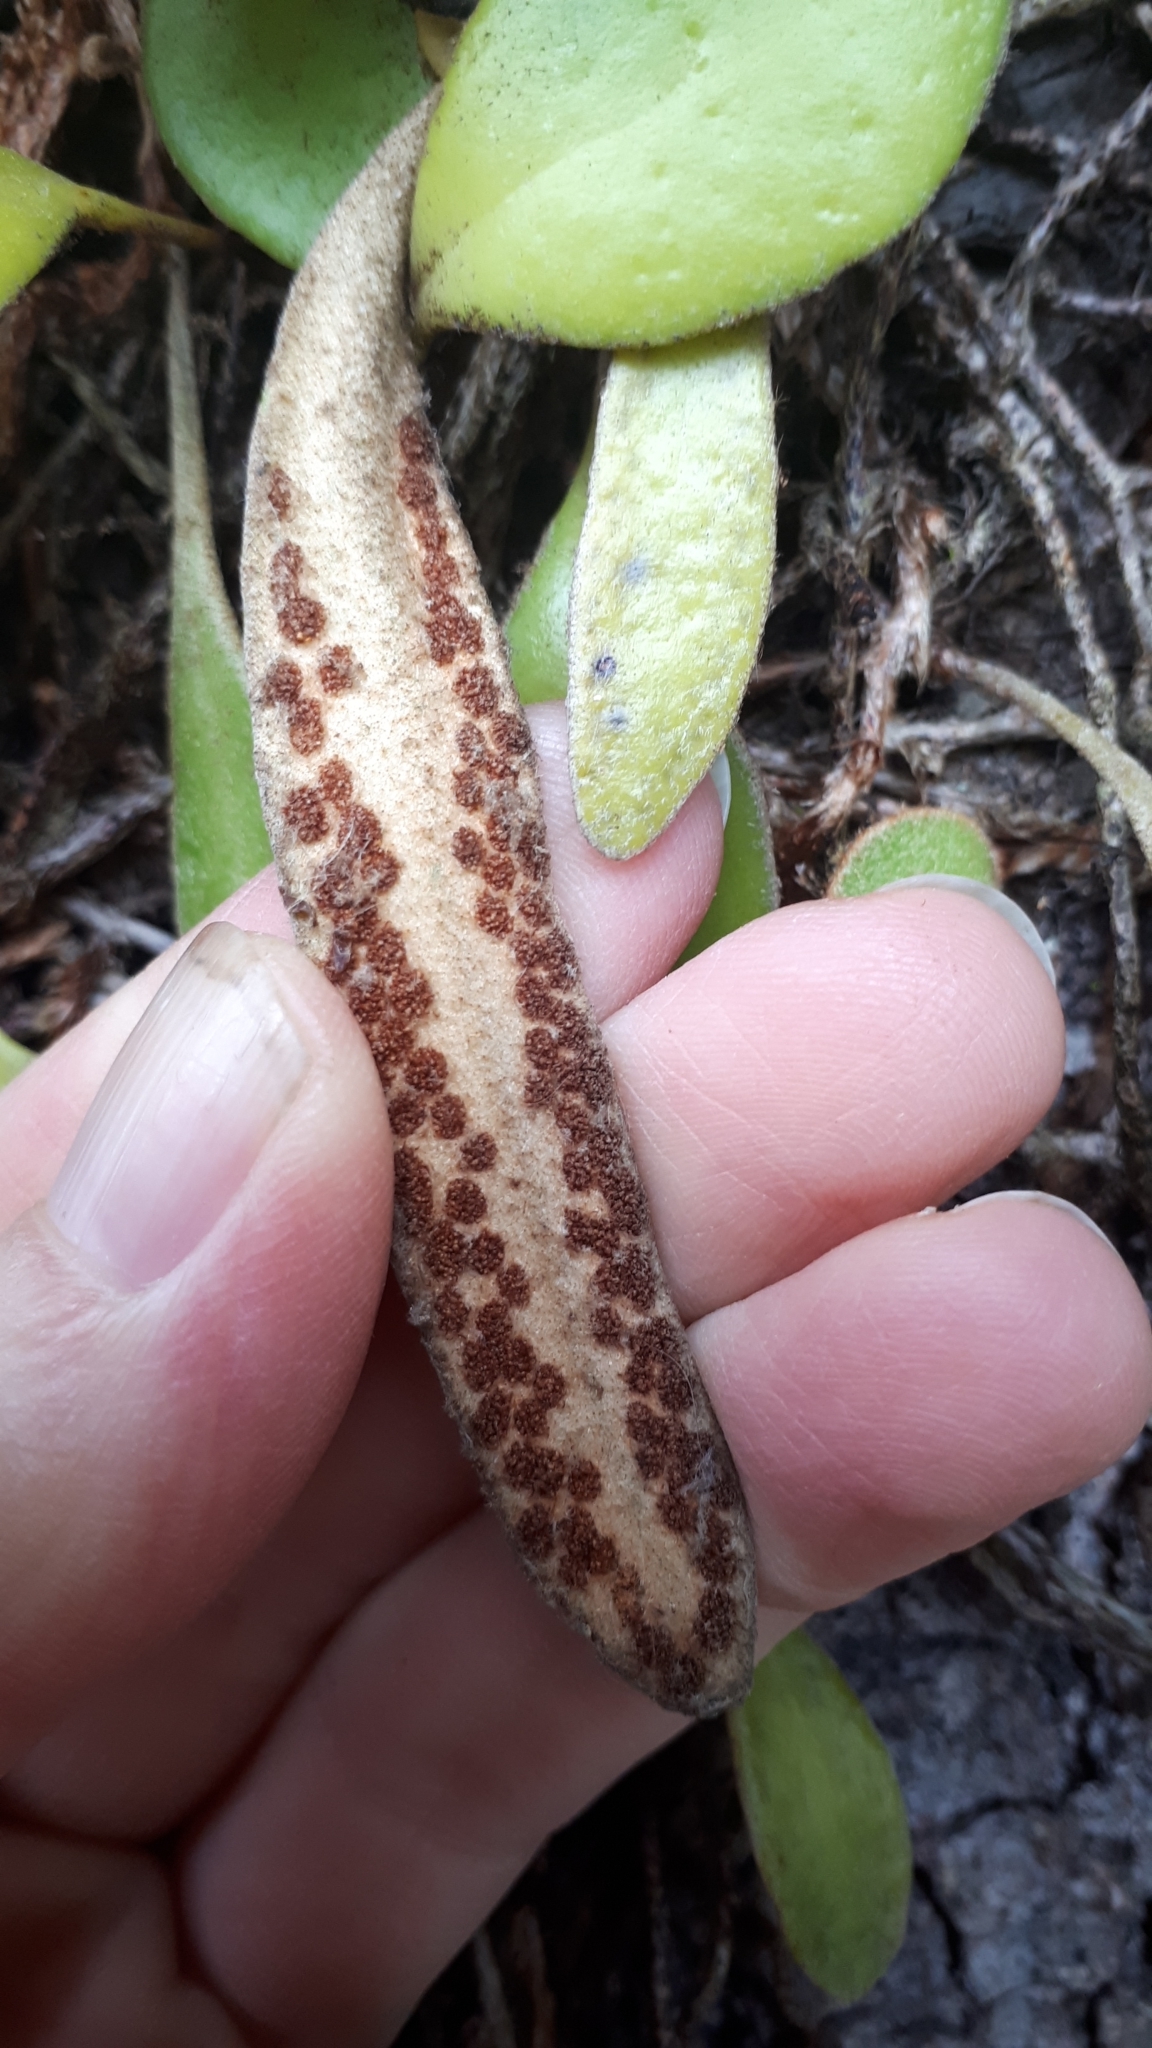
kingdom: Plantae
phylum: Tracheophyta
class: Polypodiopsida
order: Polypodiales
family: Polypodiaceae
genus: Pyrrosia
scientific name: Pyrrosia eleagnifolia
